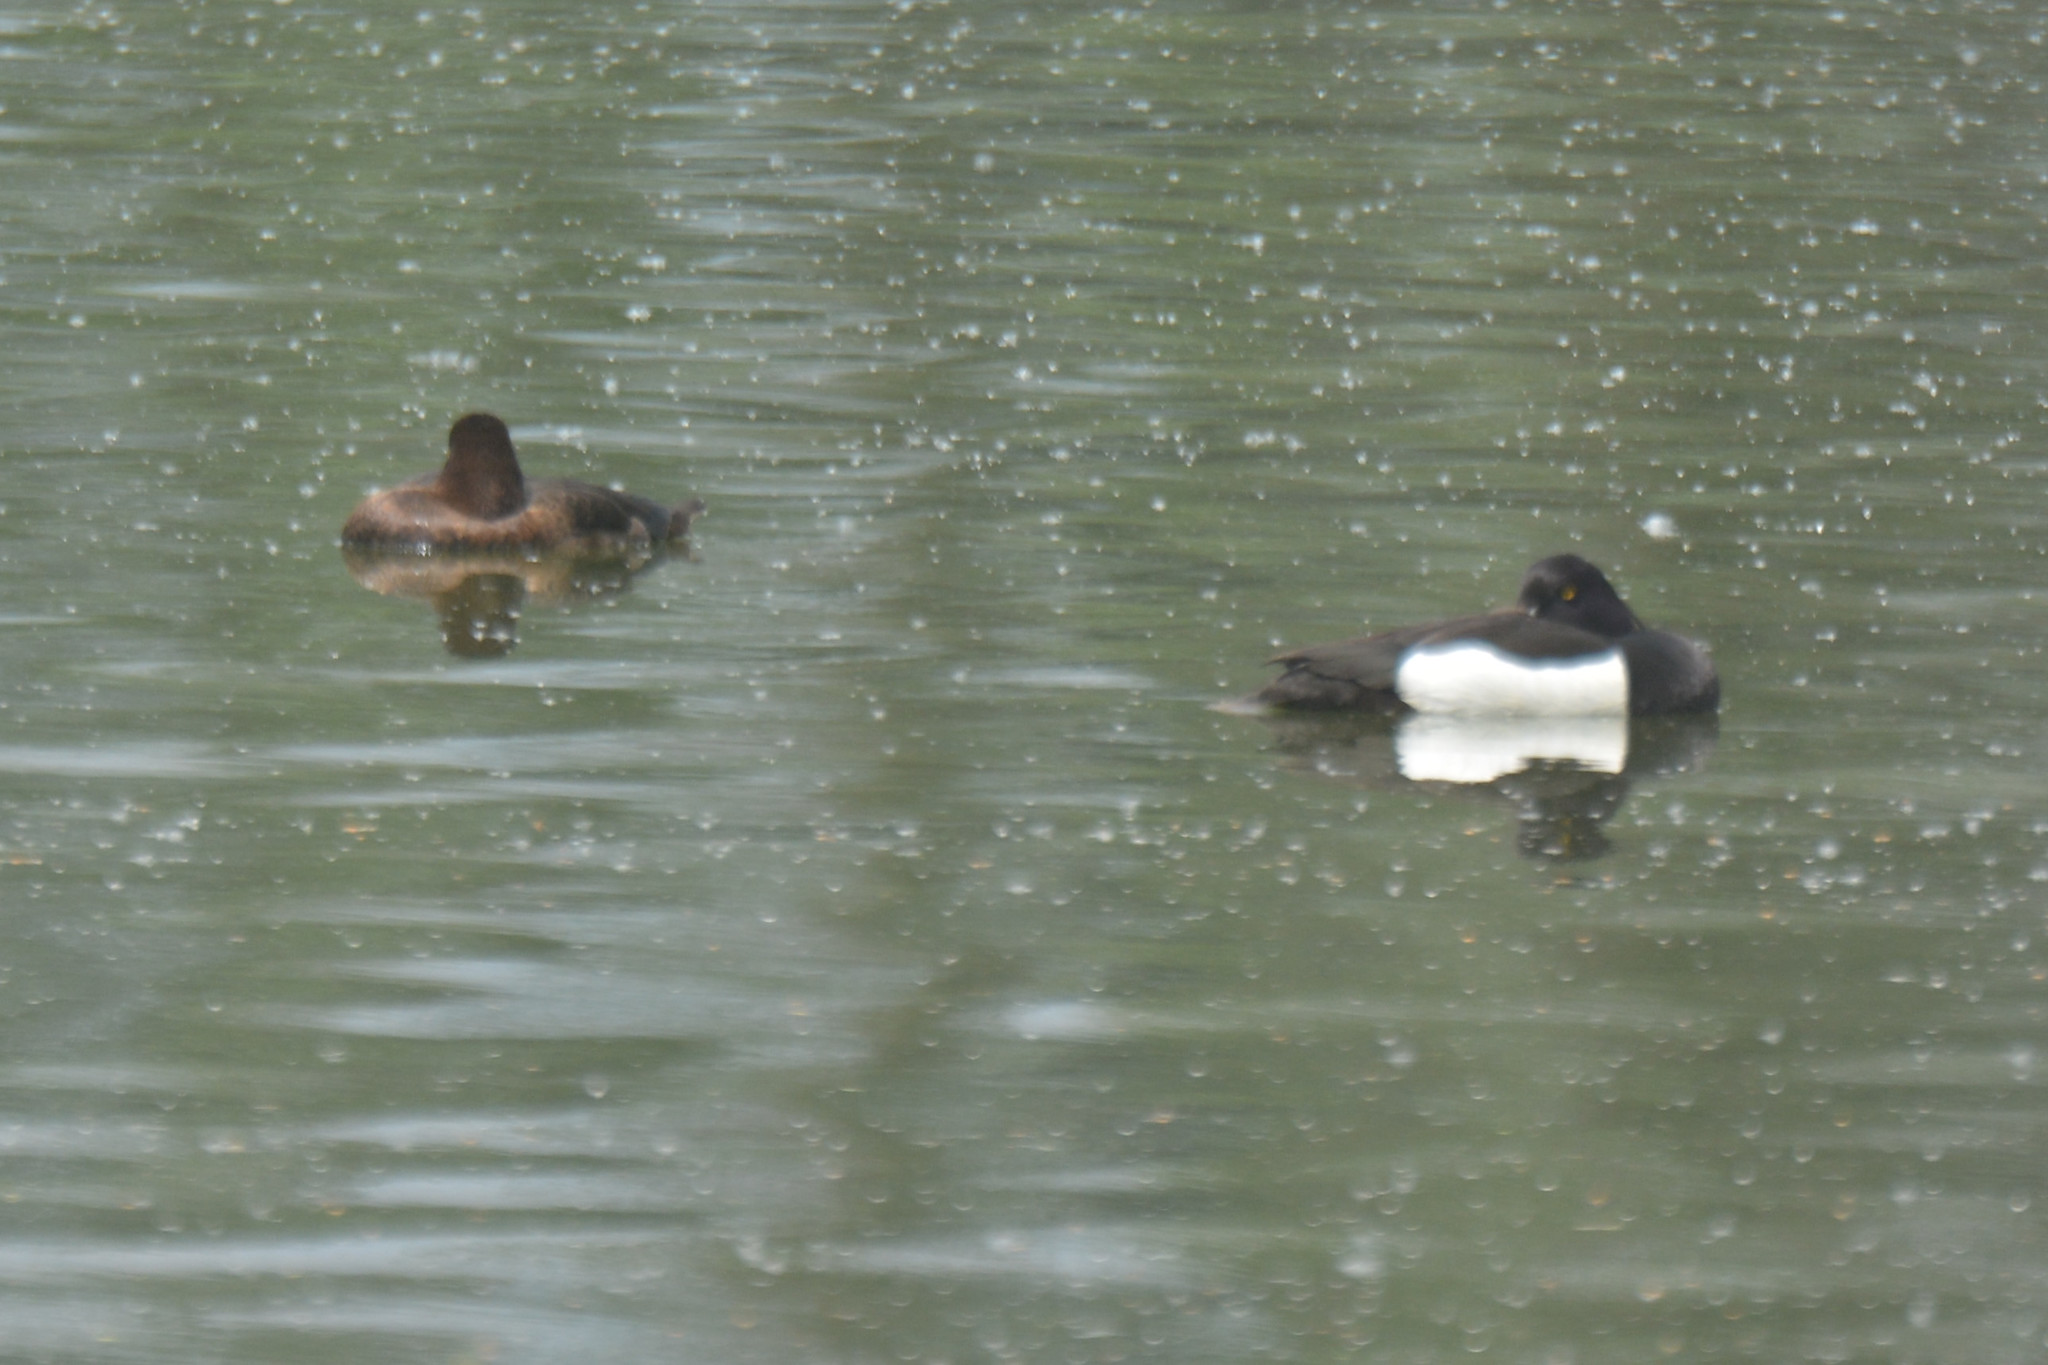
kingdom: Animalia
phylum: Chordata
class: Aves
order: Anseriformes
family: Anatidae
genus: Aythya
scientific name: Aythya fuligula
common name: Tufted duck
